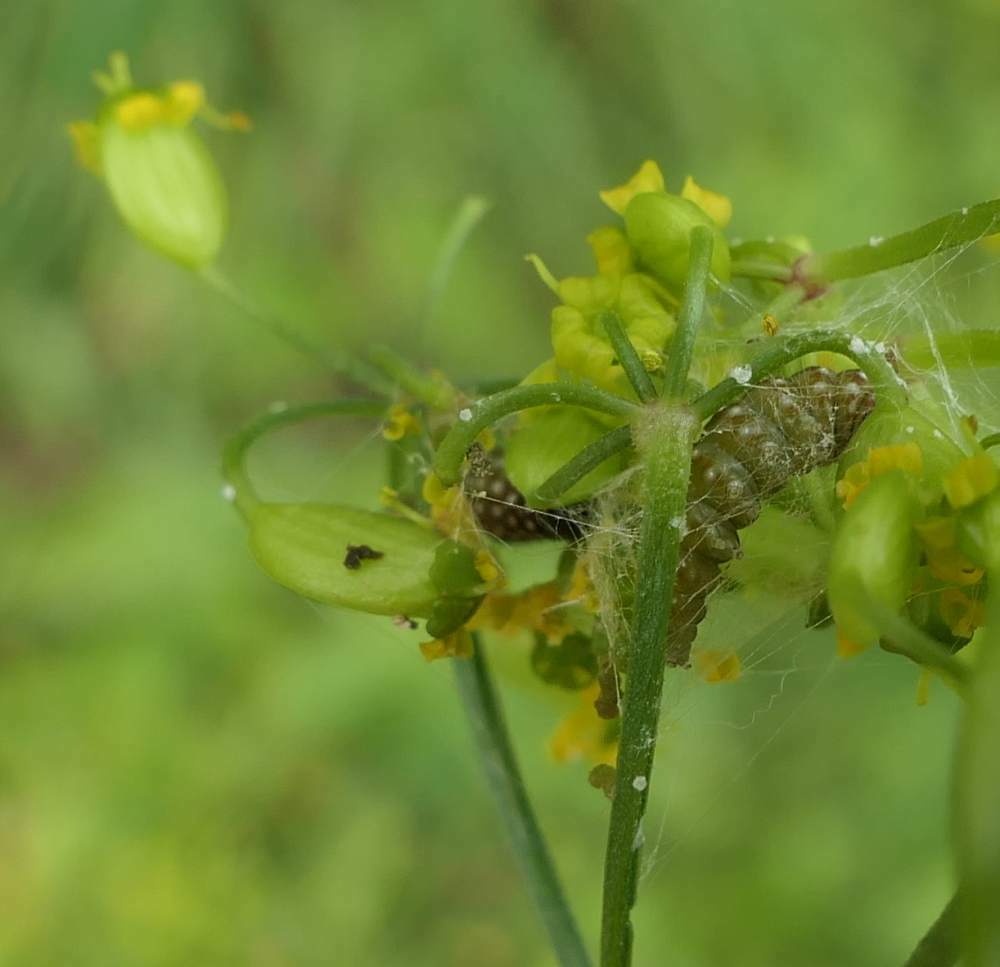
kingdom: Animalia
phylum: Arthropoda
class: Insecta
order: Lepidoptera
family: Depressariidae
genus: Depressaria
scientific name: Depressaria depressana
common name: Lost flat-body
